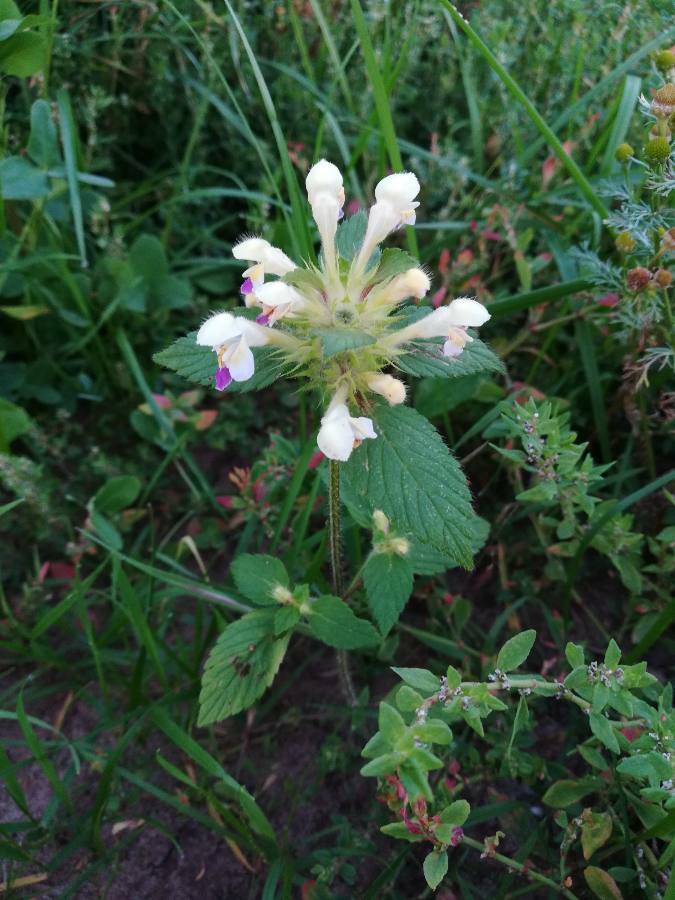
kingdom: Plantae
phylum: Tracheophyta
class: Magnoliopsida
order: Lamiales
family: Lamiaceae
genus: Galeopsis
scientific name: Galeopsis speciosa
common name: Large-flowered hemp-nettle
